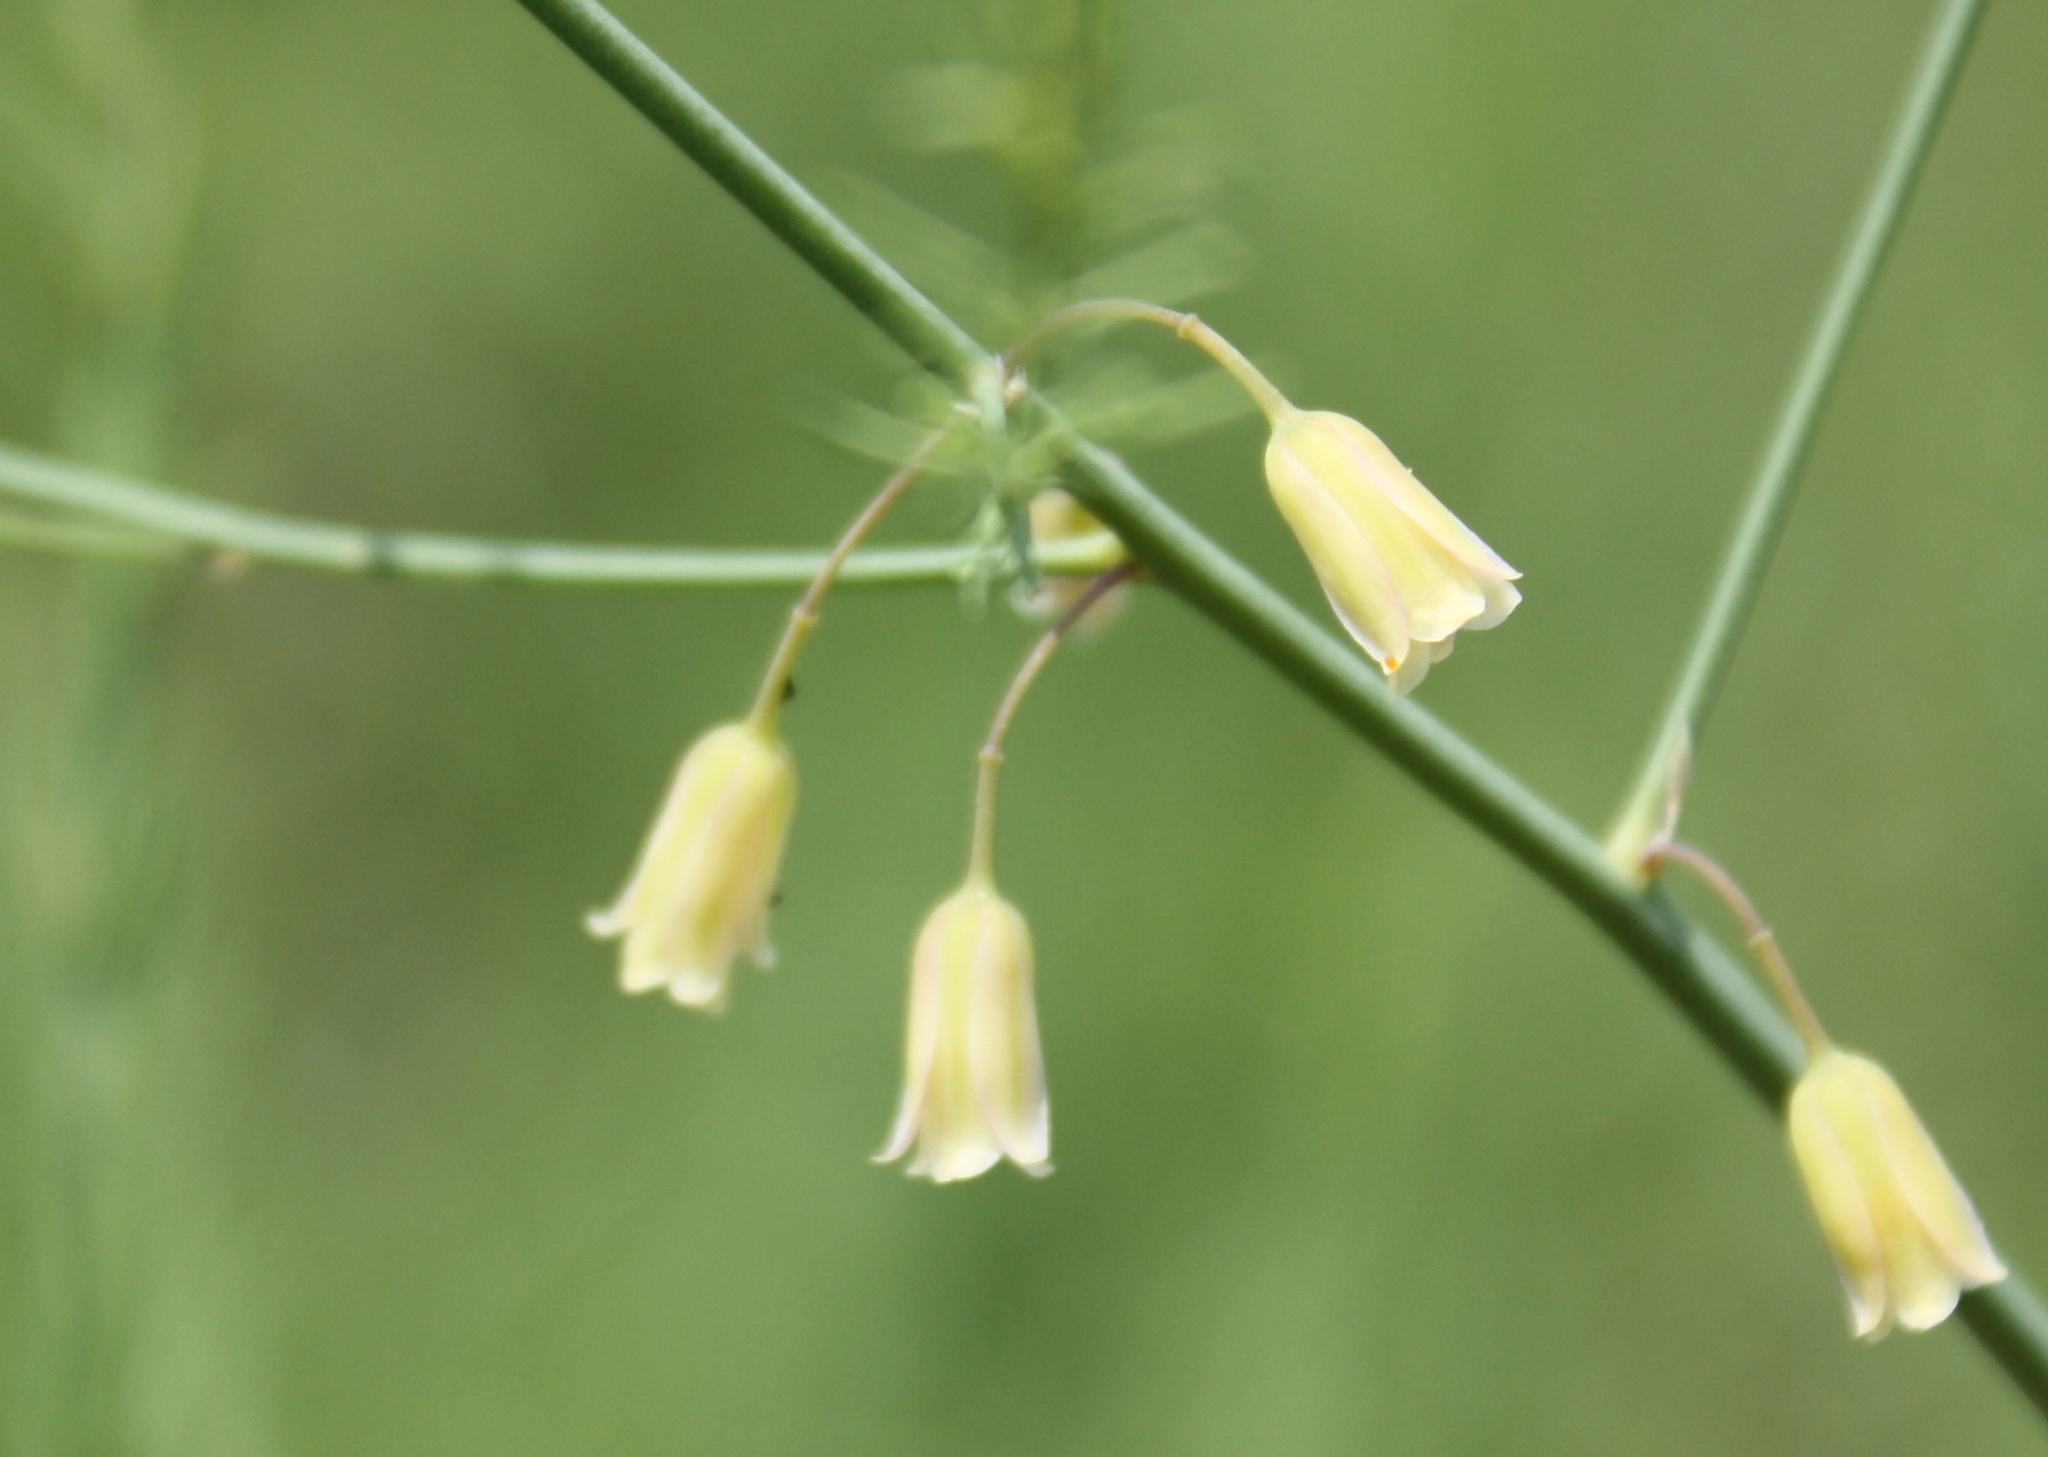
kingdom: Plantae
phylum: Tracheophyta
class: Liliopsida
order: Asparagales
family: Asparagaceae
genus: Asparagus
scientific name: Asparagus officinalis
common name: Garden asparagus
